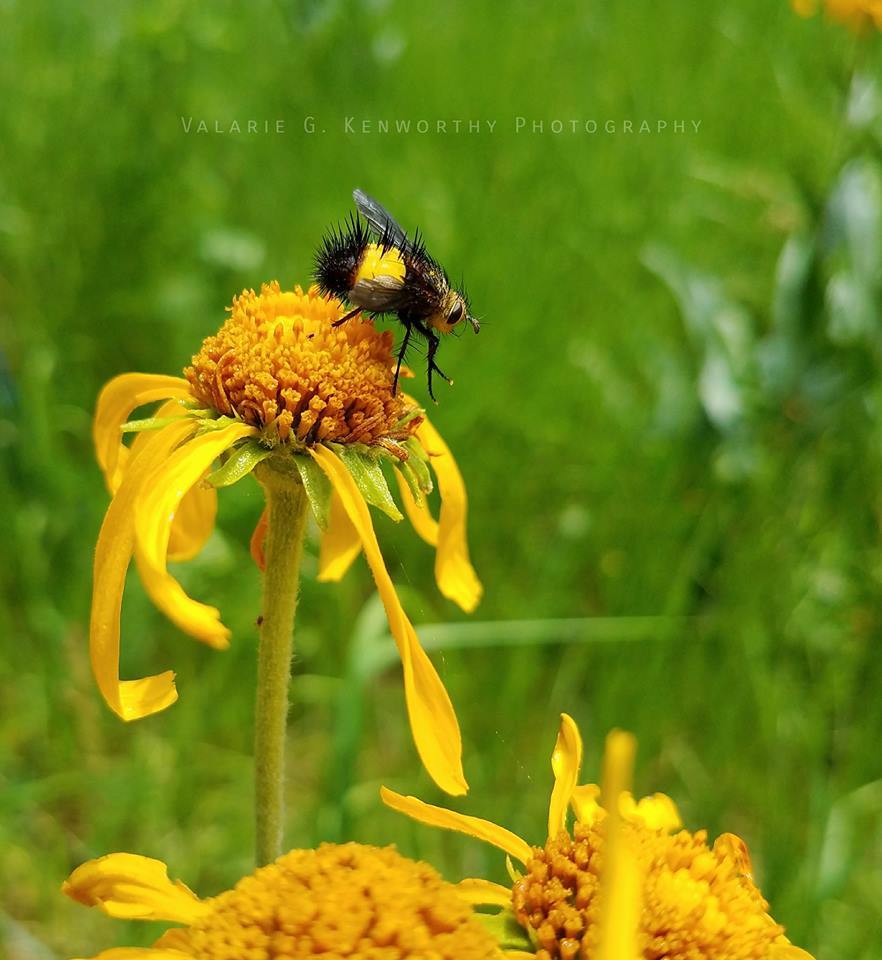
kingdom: Animalia
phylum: Arthropoda
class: Insecta
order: Diptera
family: Tachinidae
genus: Xanthoepalpus
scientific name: Xanthoepalpus bicolor
